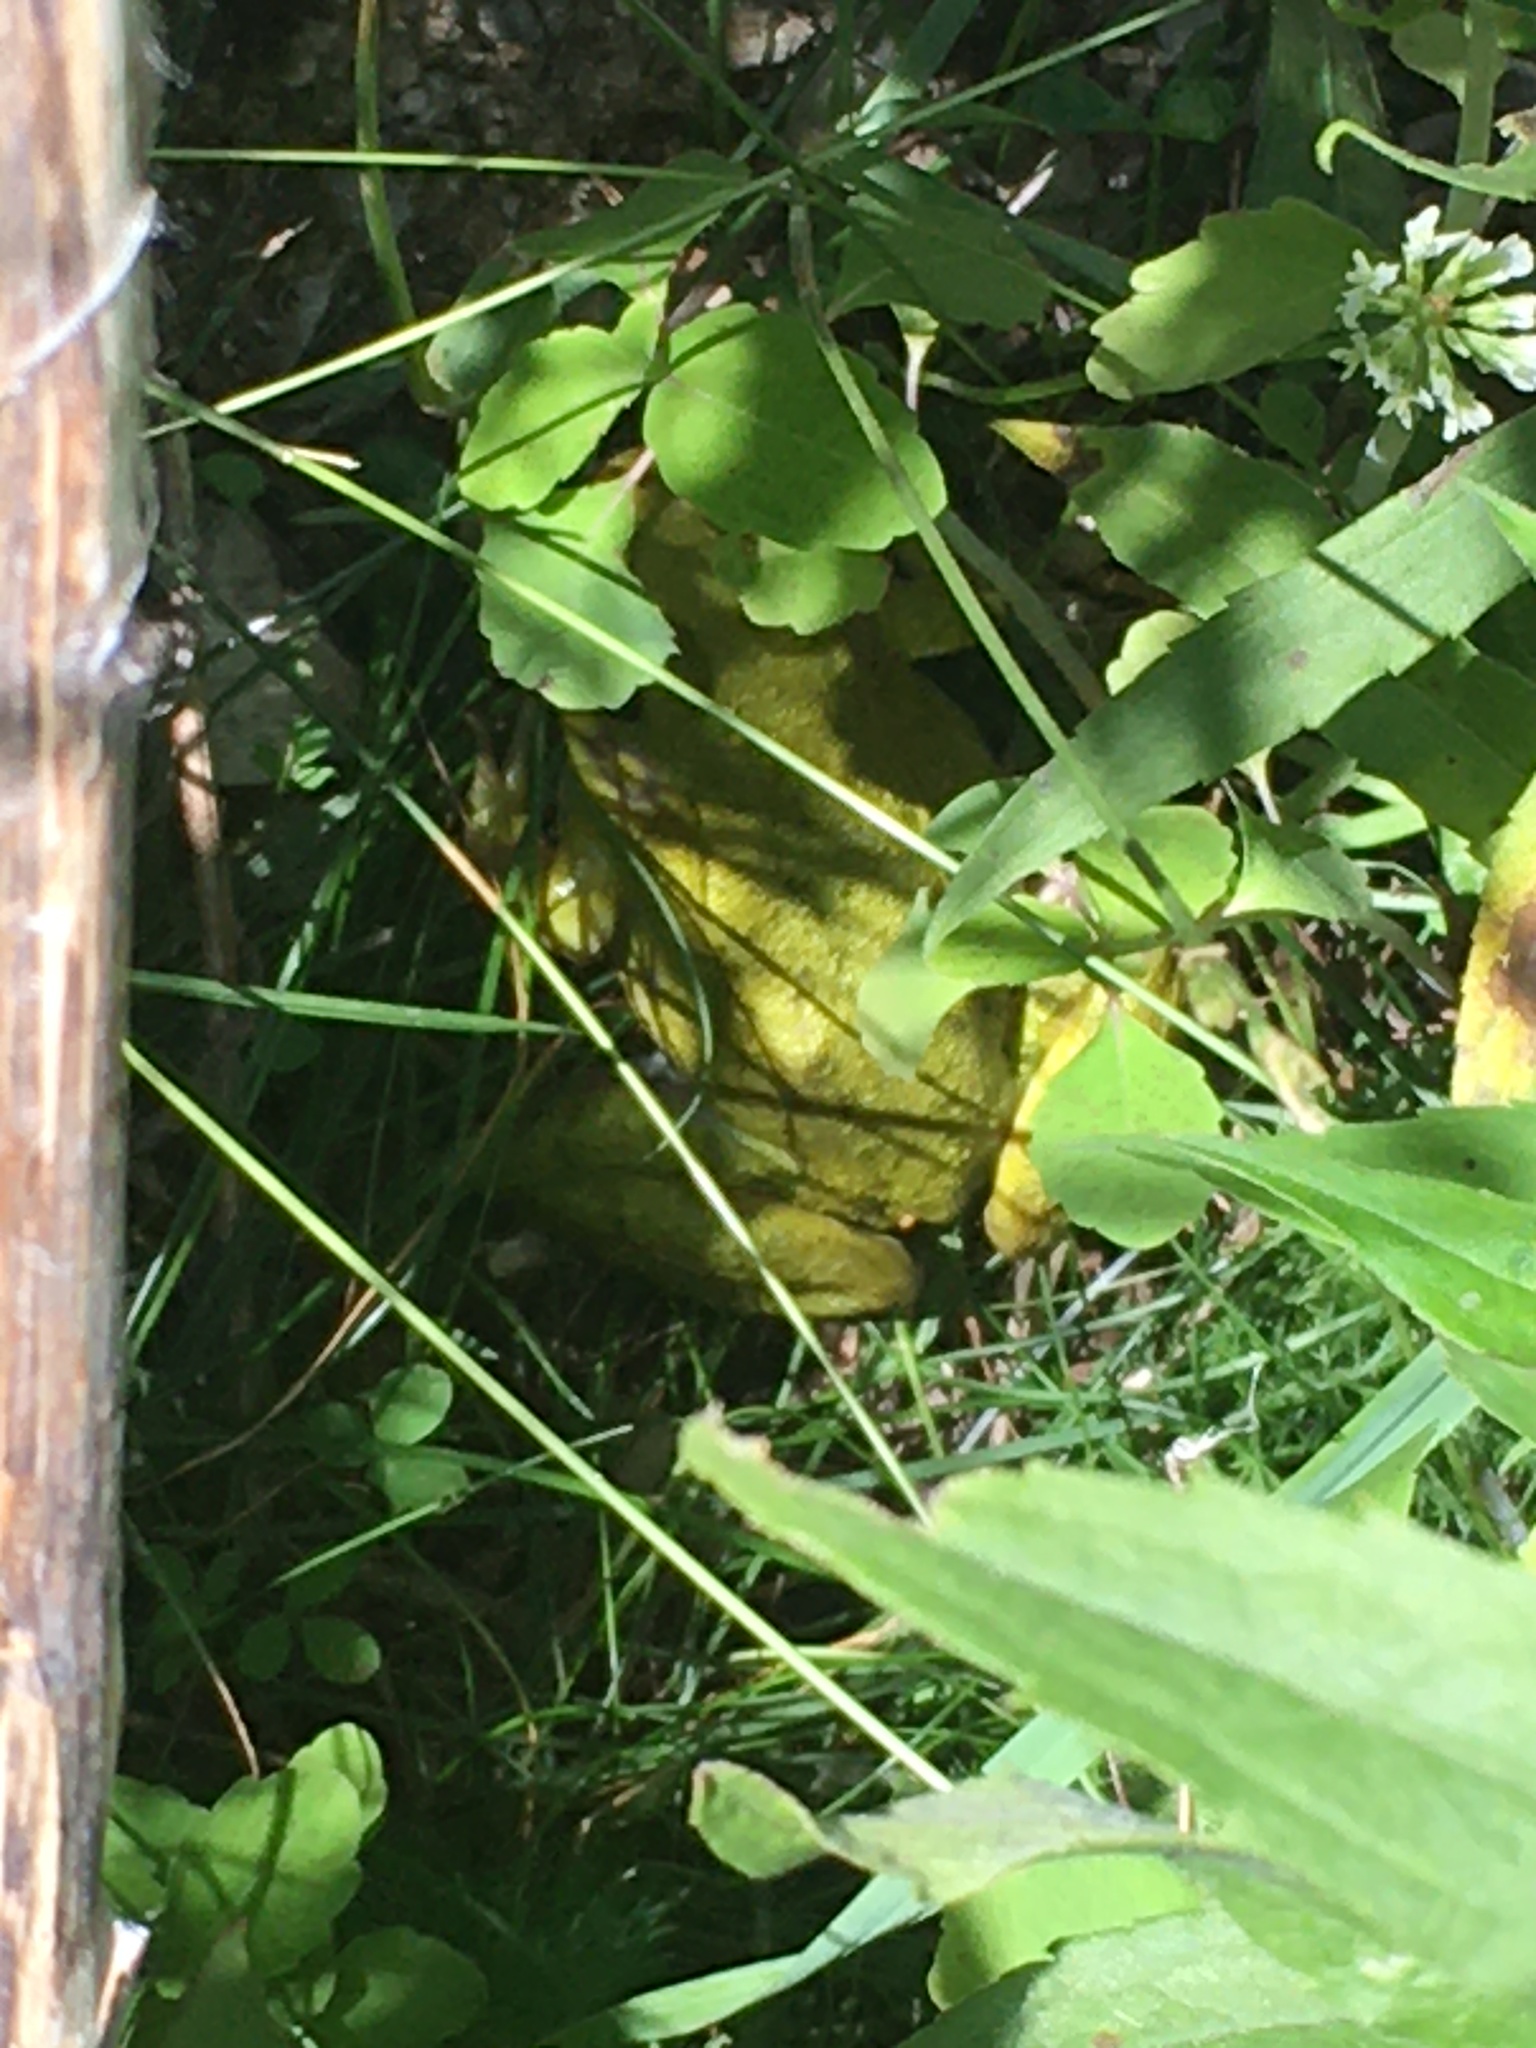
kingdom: Animalia
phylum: Chordata
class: Amphibia
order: Anura
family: Ranidae
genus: Lithobates
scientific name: Lithobates clamitans
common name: Green frog
